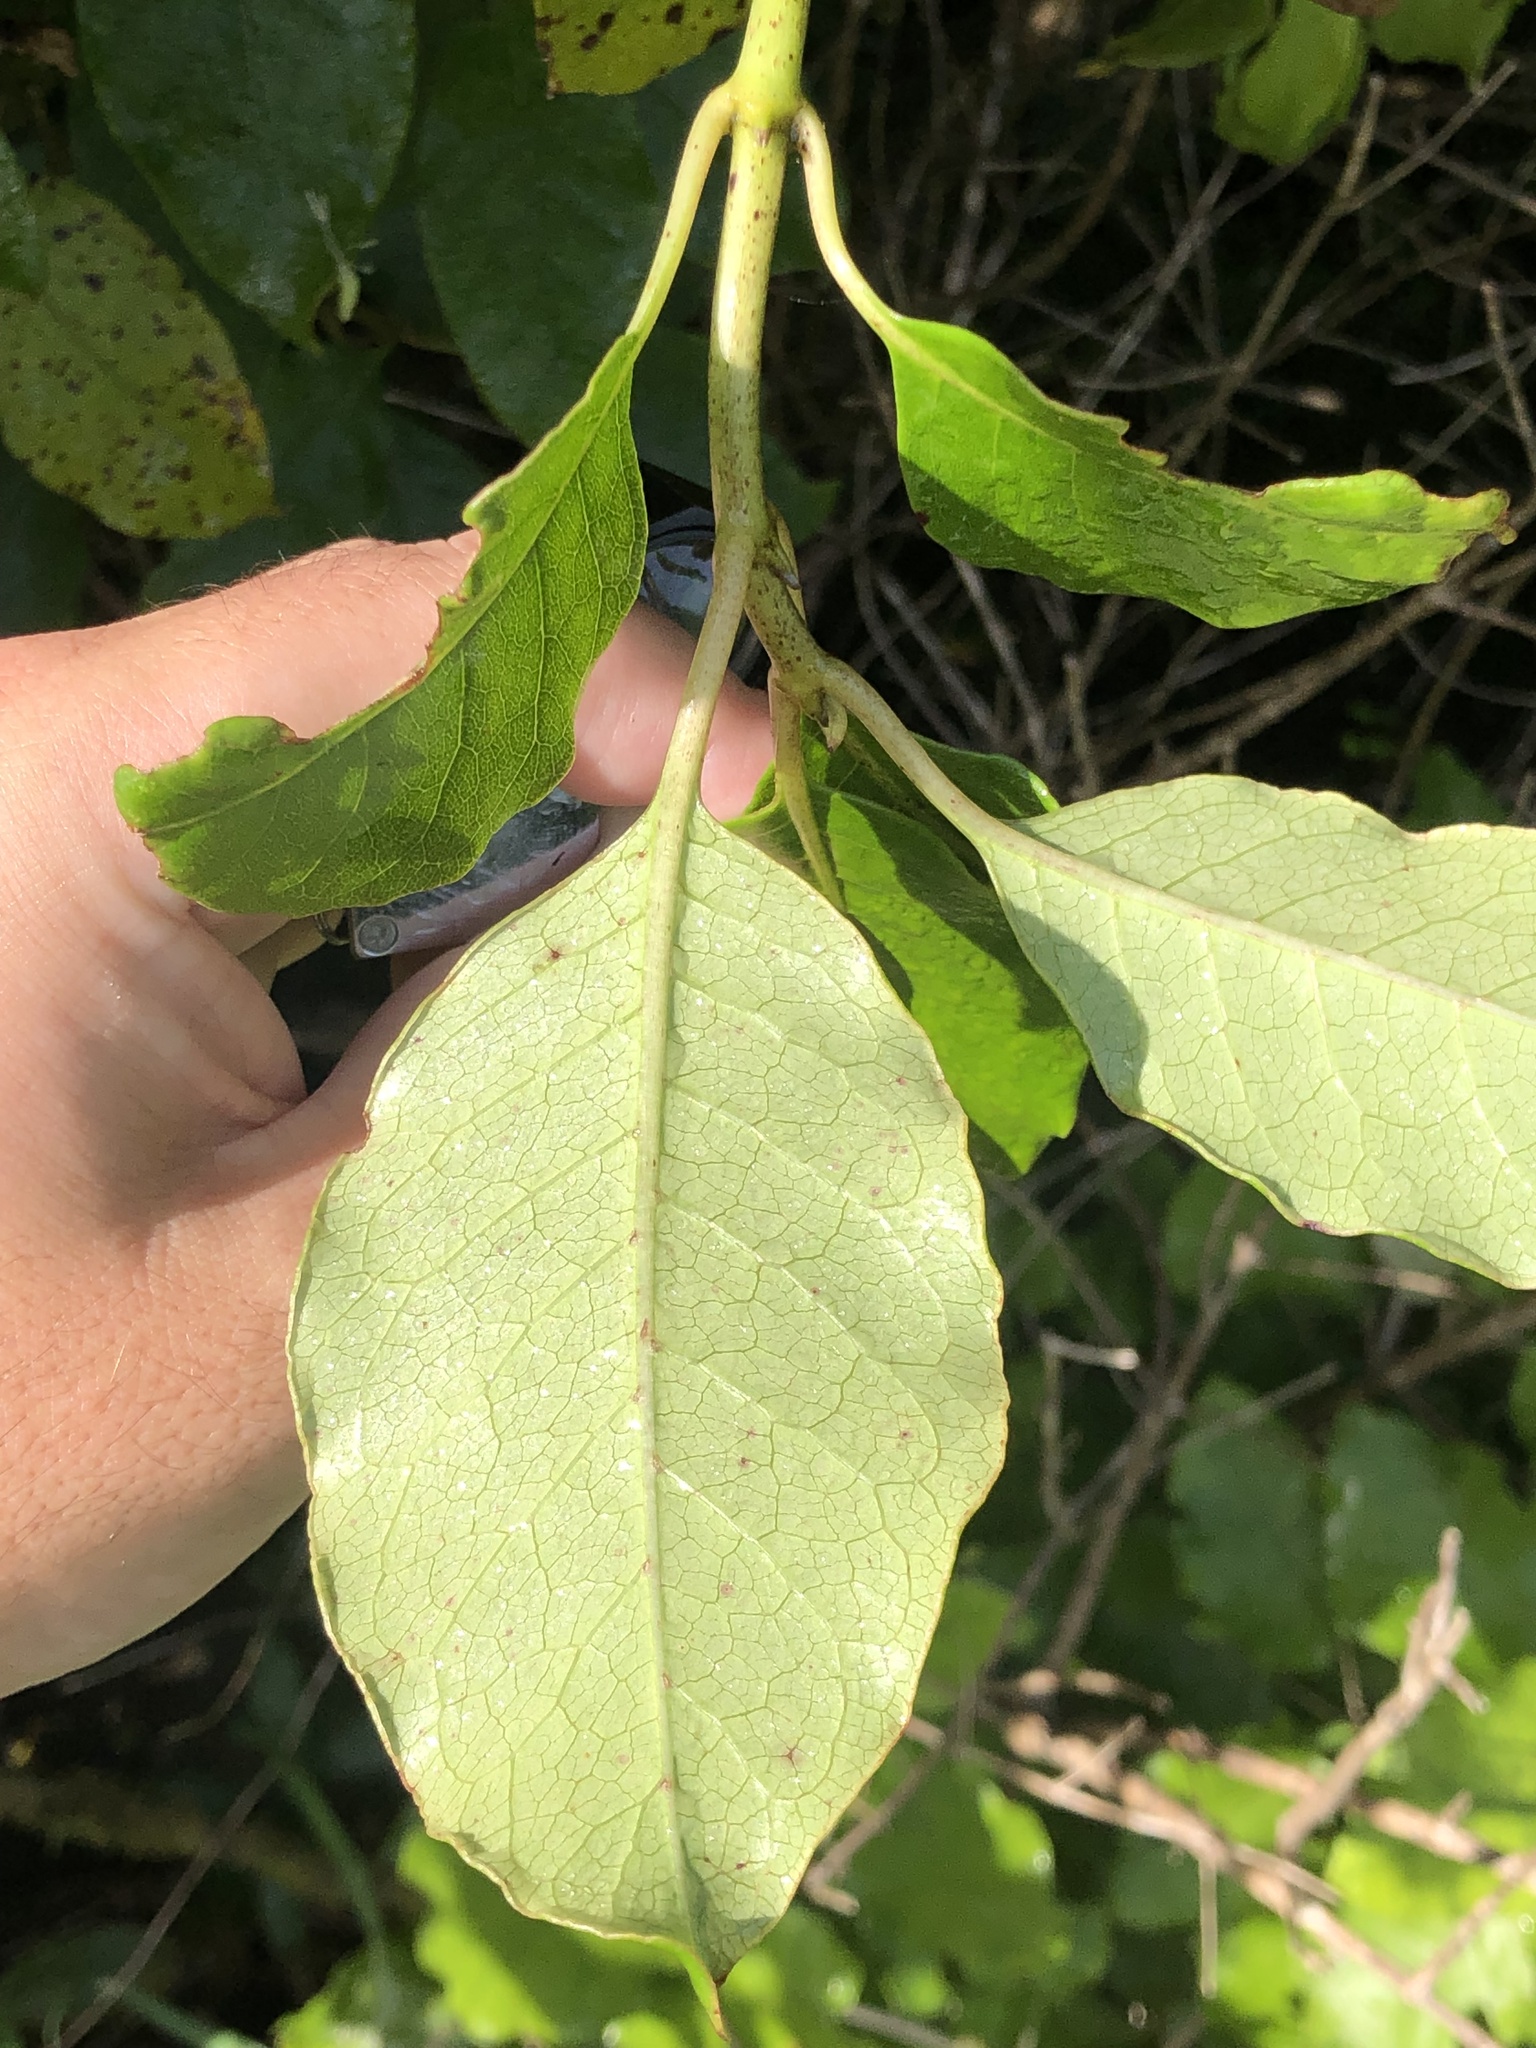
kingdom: Plantae
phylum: Tracheophyta
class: Magnoliopsida
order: Gentianales
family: Rubiaceae
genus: Coprosma
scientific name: Coprosma autumnalis
